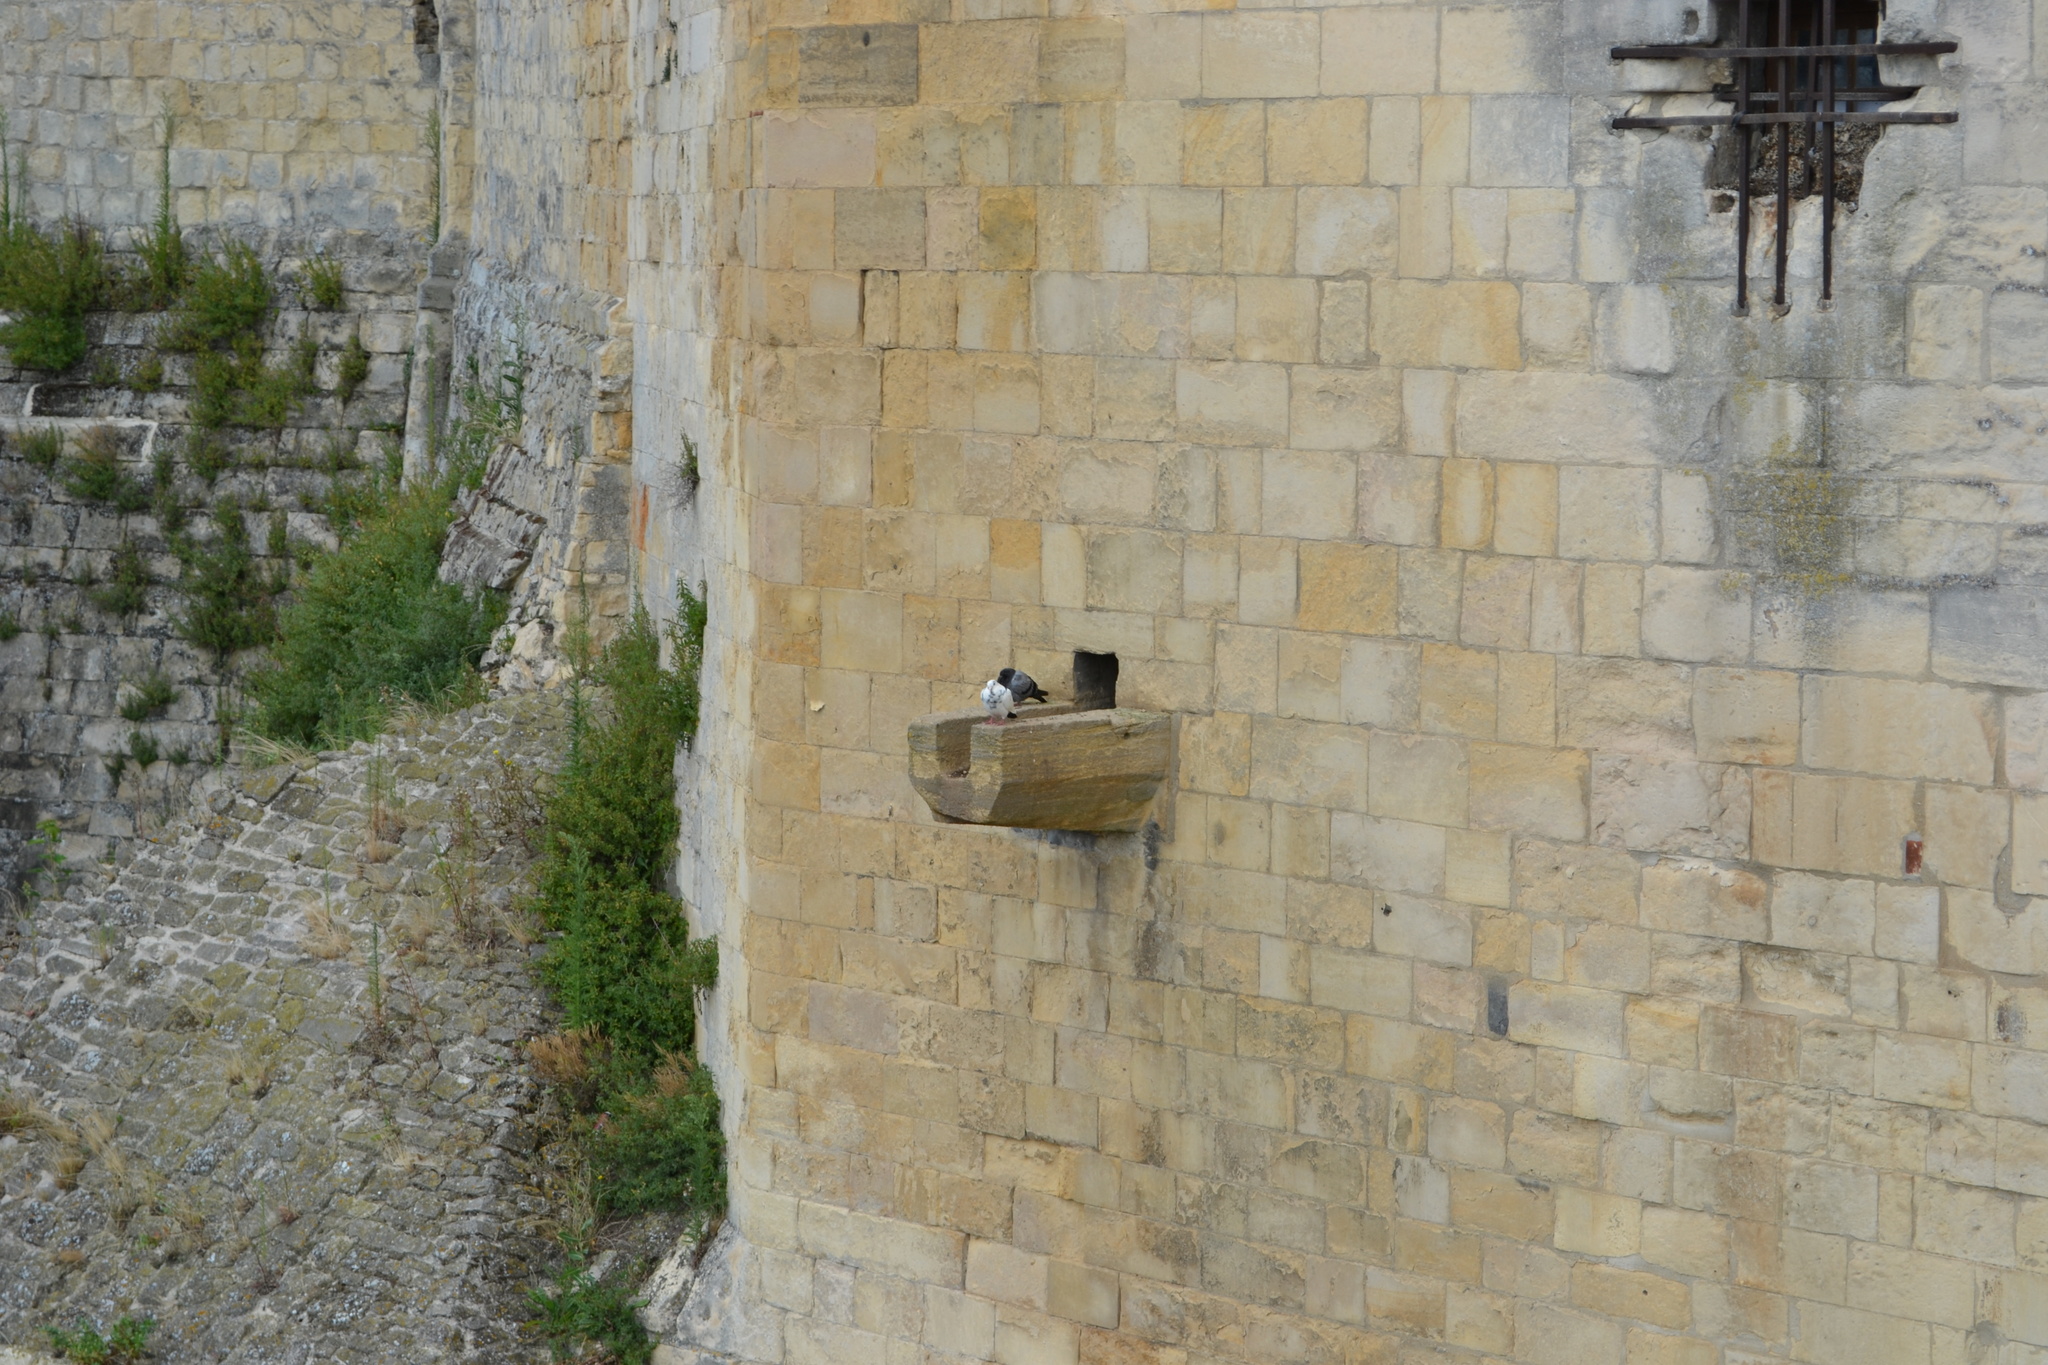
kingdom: Animalia
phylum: Chordata
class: Aves
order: Columbiformes
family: Columbidae
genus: Columba
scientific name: Columba livia
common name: Rock pigeon
